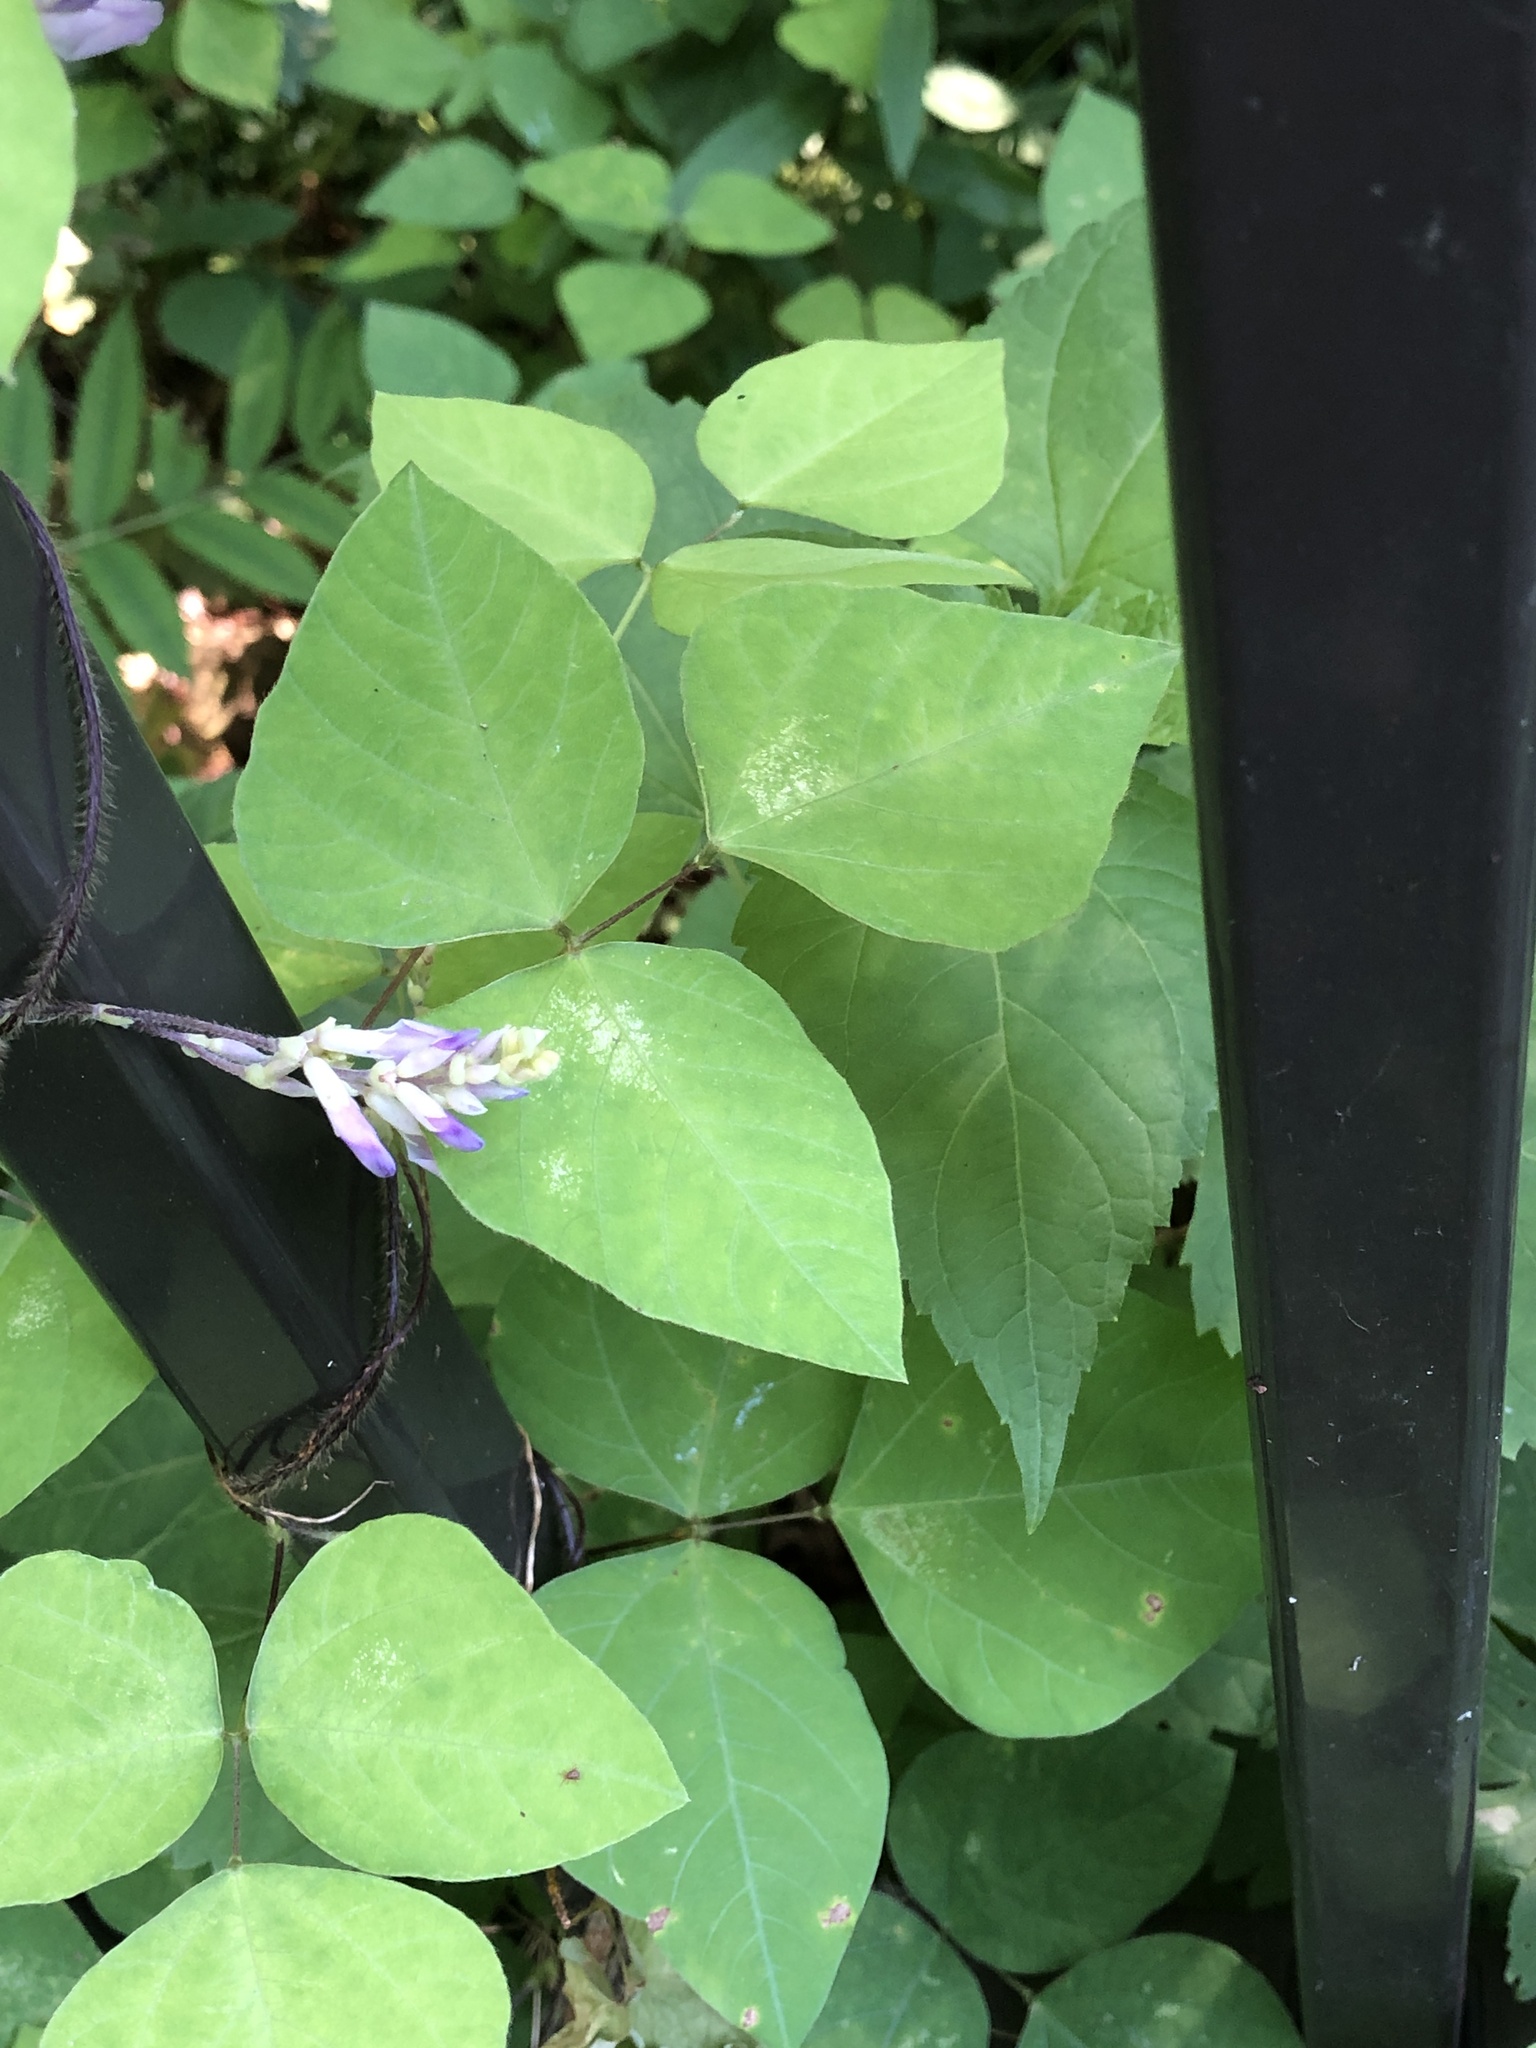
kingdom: Plantae
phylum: Tracheophyta
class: Magnoliopsida
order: Fabales
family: Fabaceae
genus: Amphicarpaea
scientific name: Amphicarpaea bracteata
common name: American hog peanut
